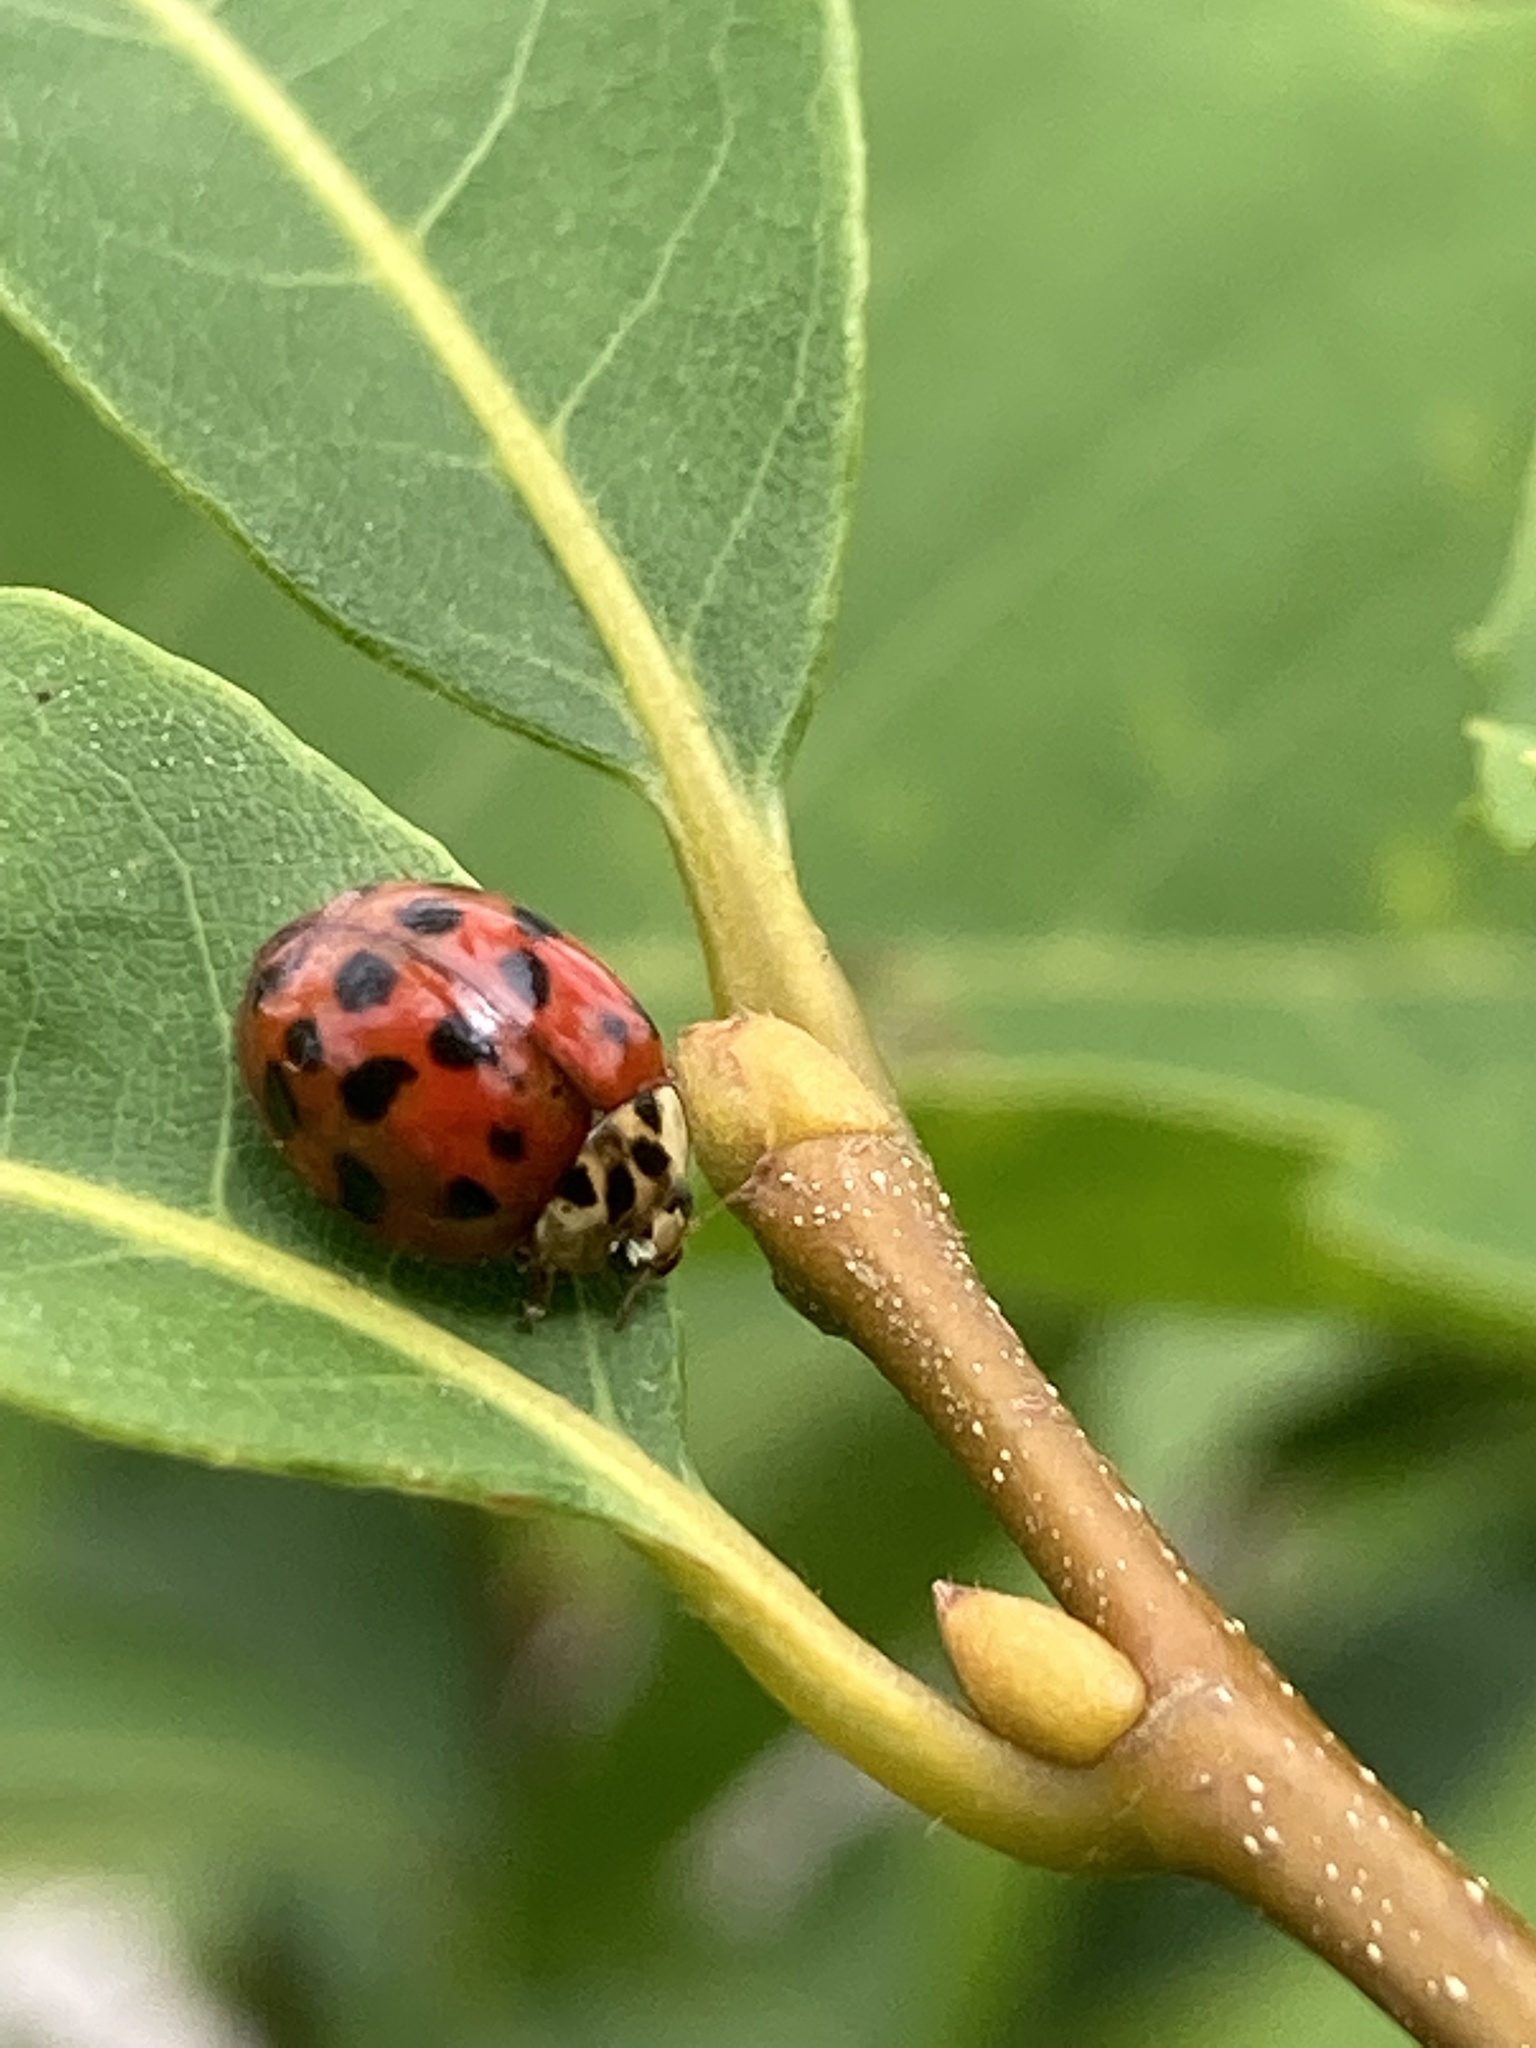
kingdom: Animalia
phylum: Arthropoda
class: Insecta
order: Coleoptera
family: Coccinellidae
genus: Harmonia
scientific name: Harmonia axyridis
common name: Harlequin ladybird
